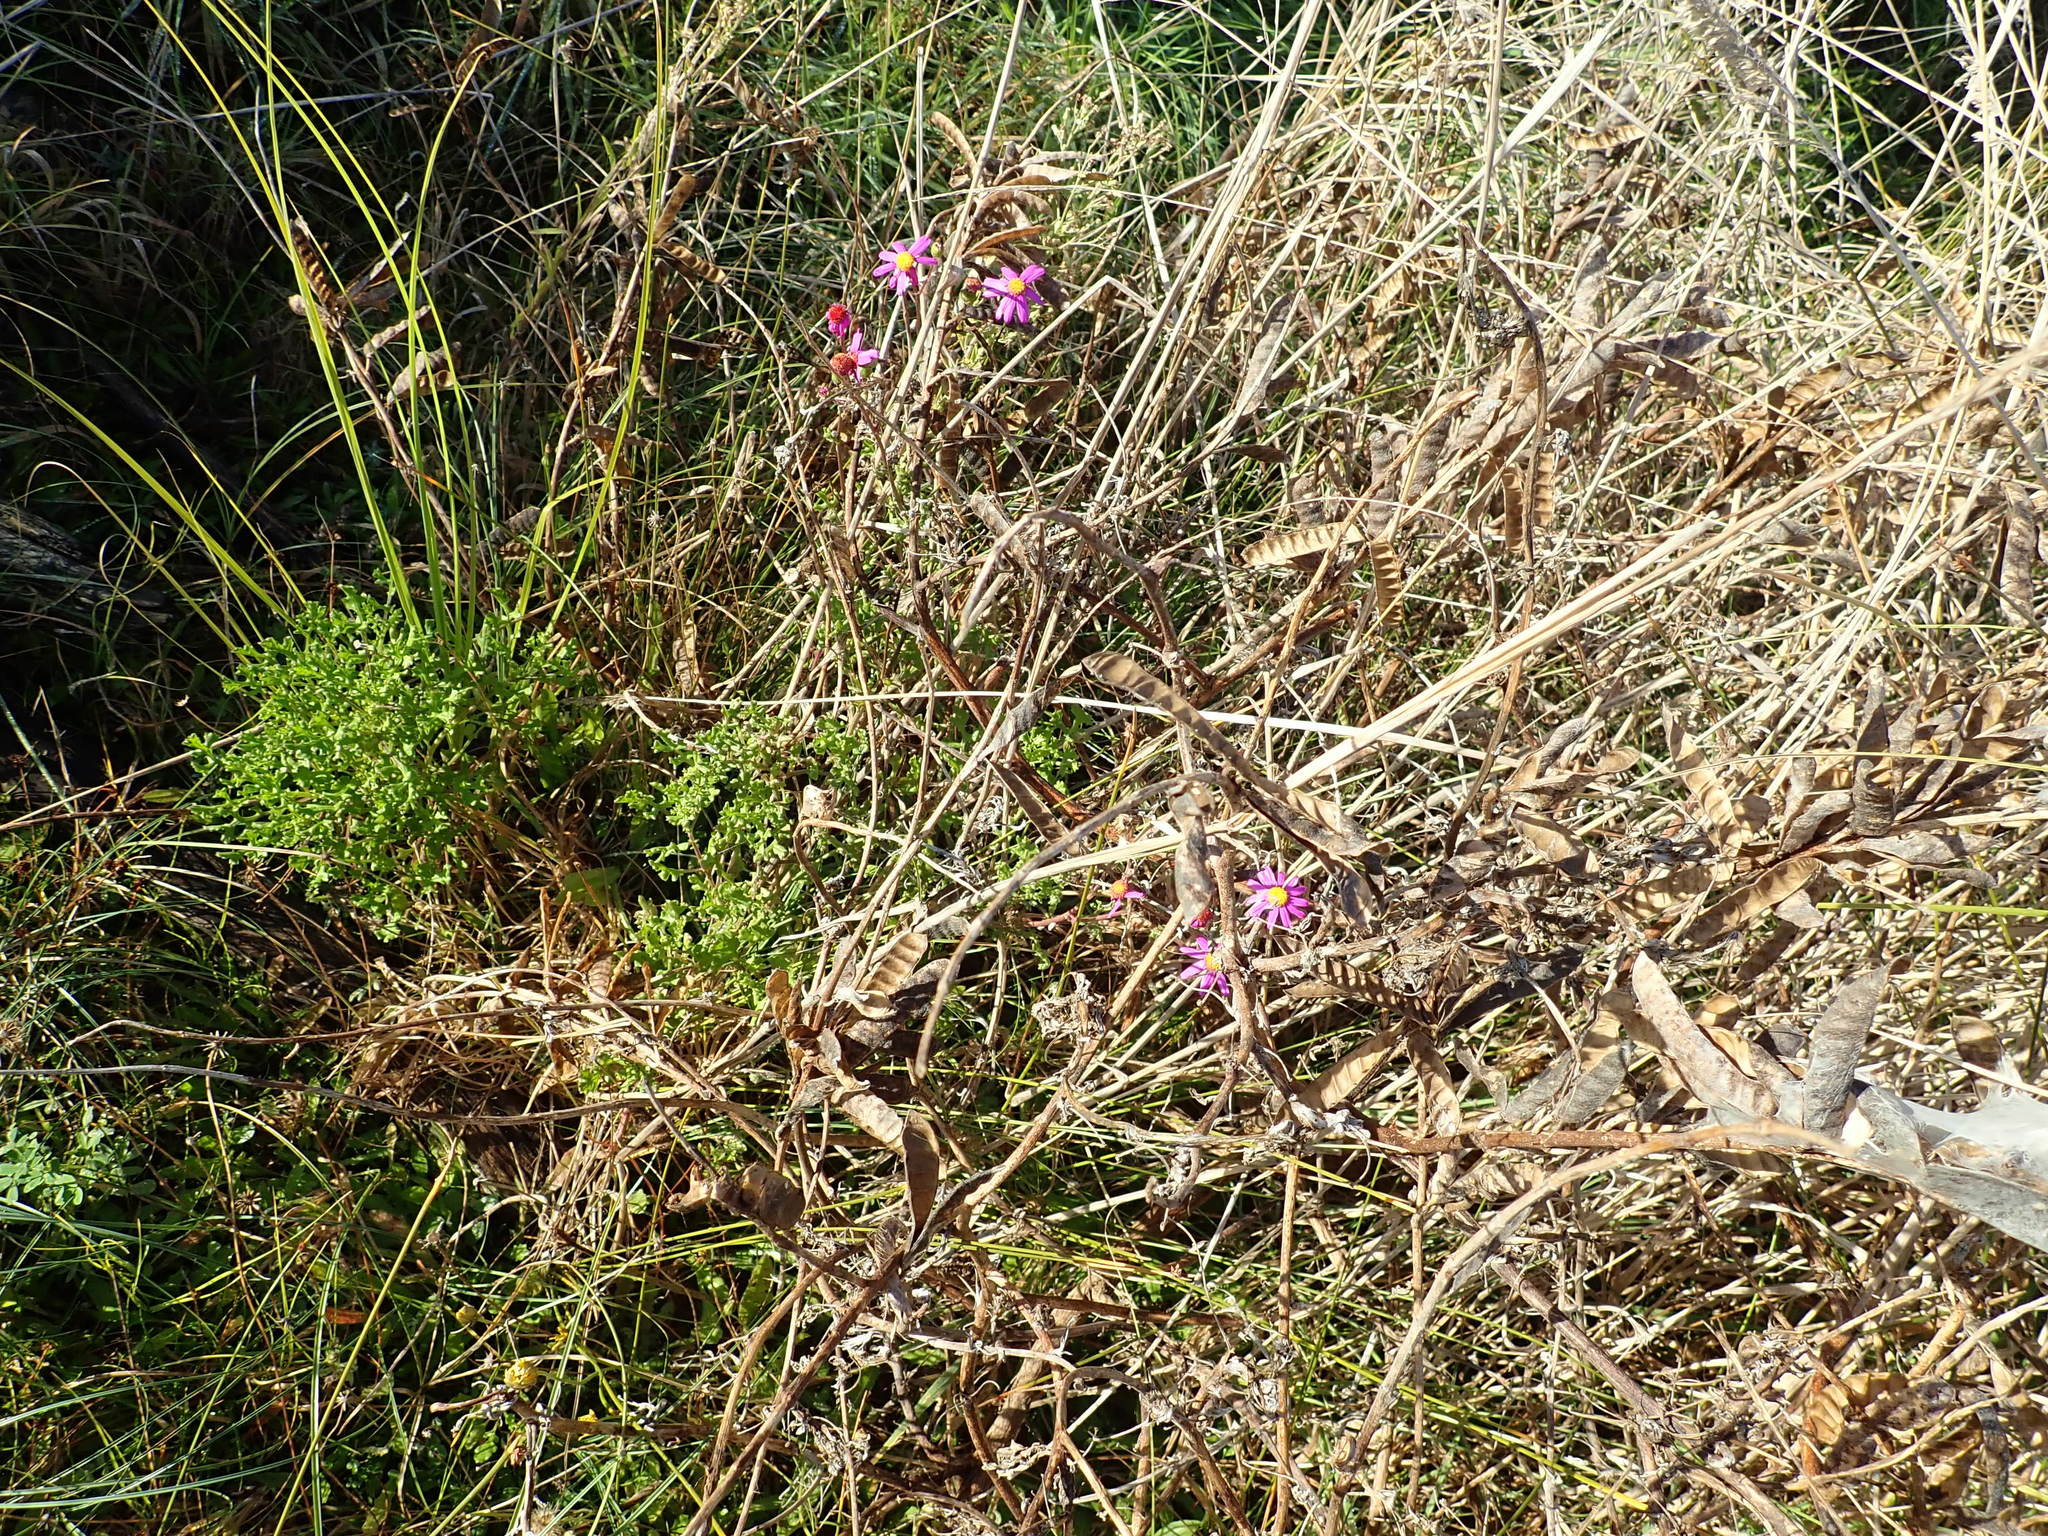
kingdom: Plantae
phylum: Tracheophyta
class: Magnoliopsida
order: Asterales
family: Asteraceae
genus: Senecio
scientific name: Senecio elegans
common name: Purple groundsel
